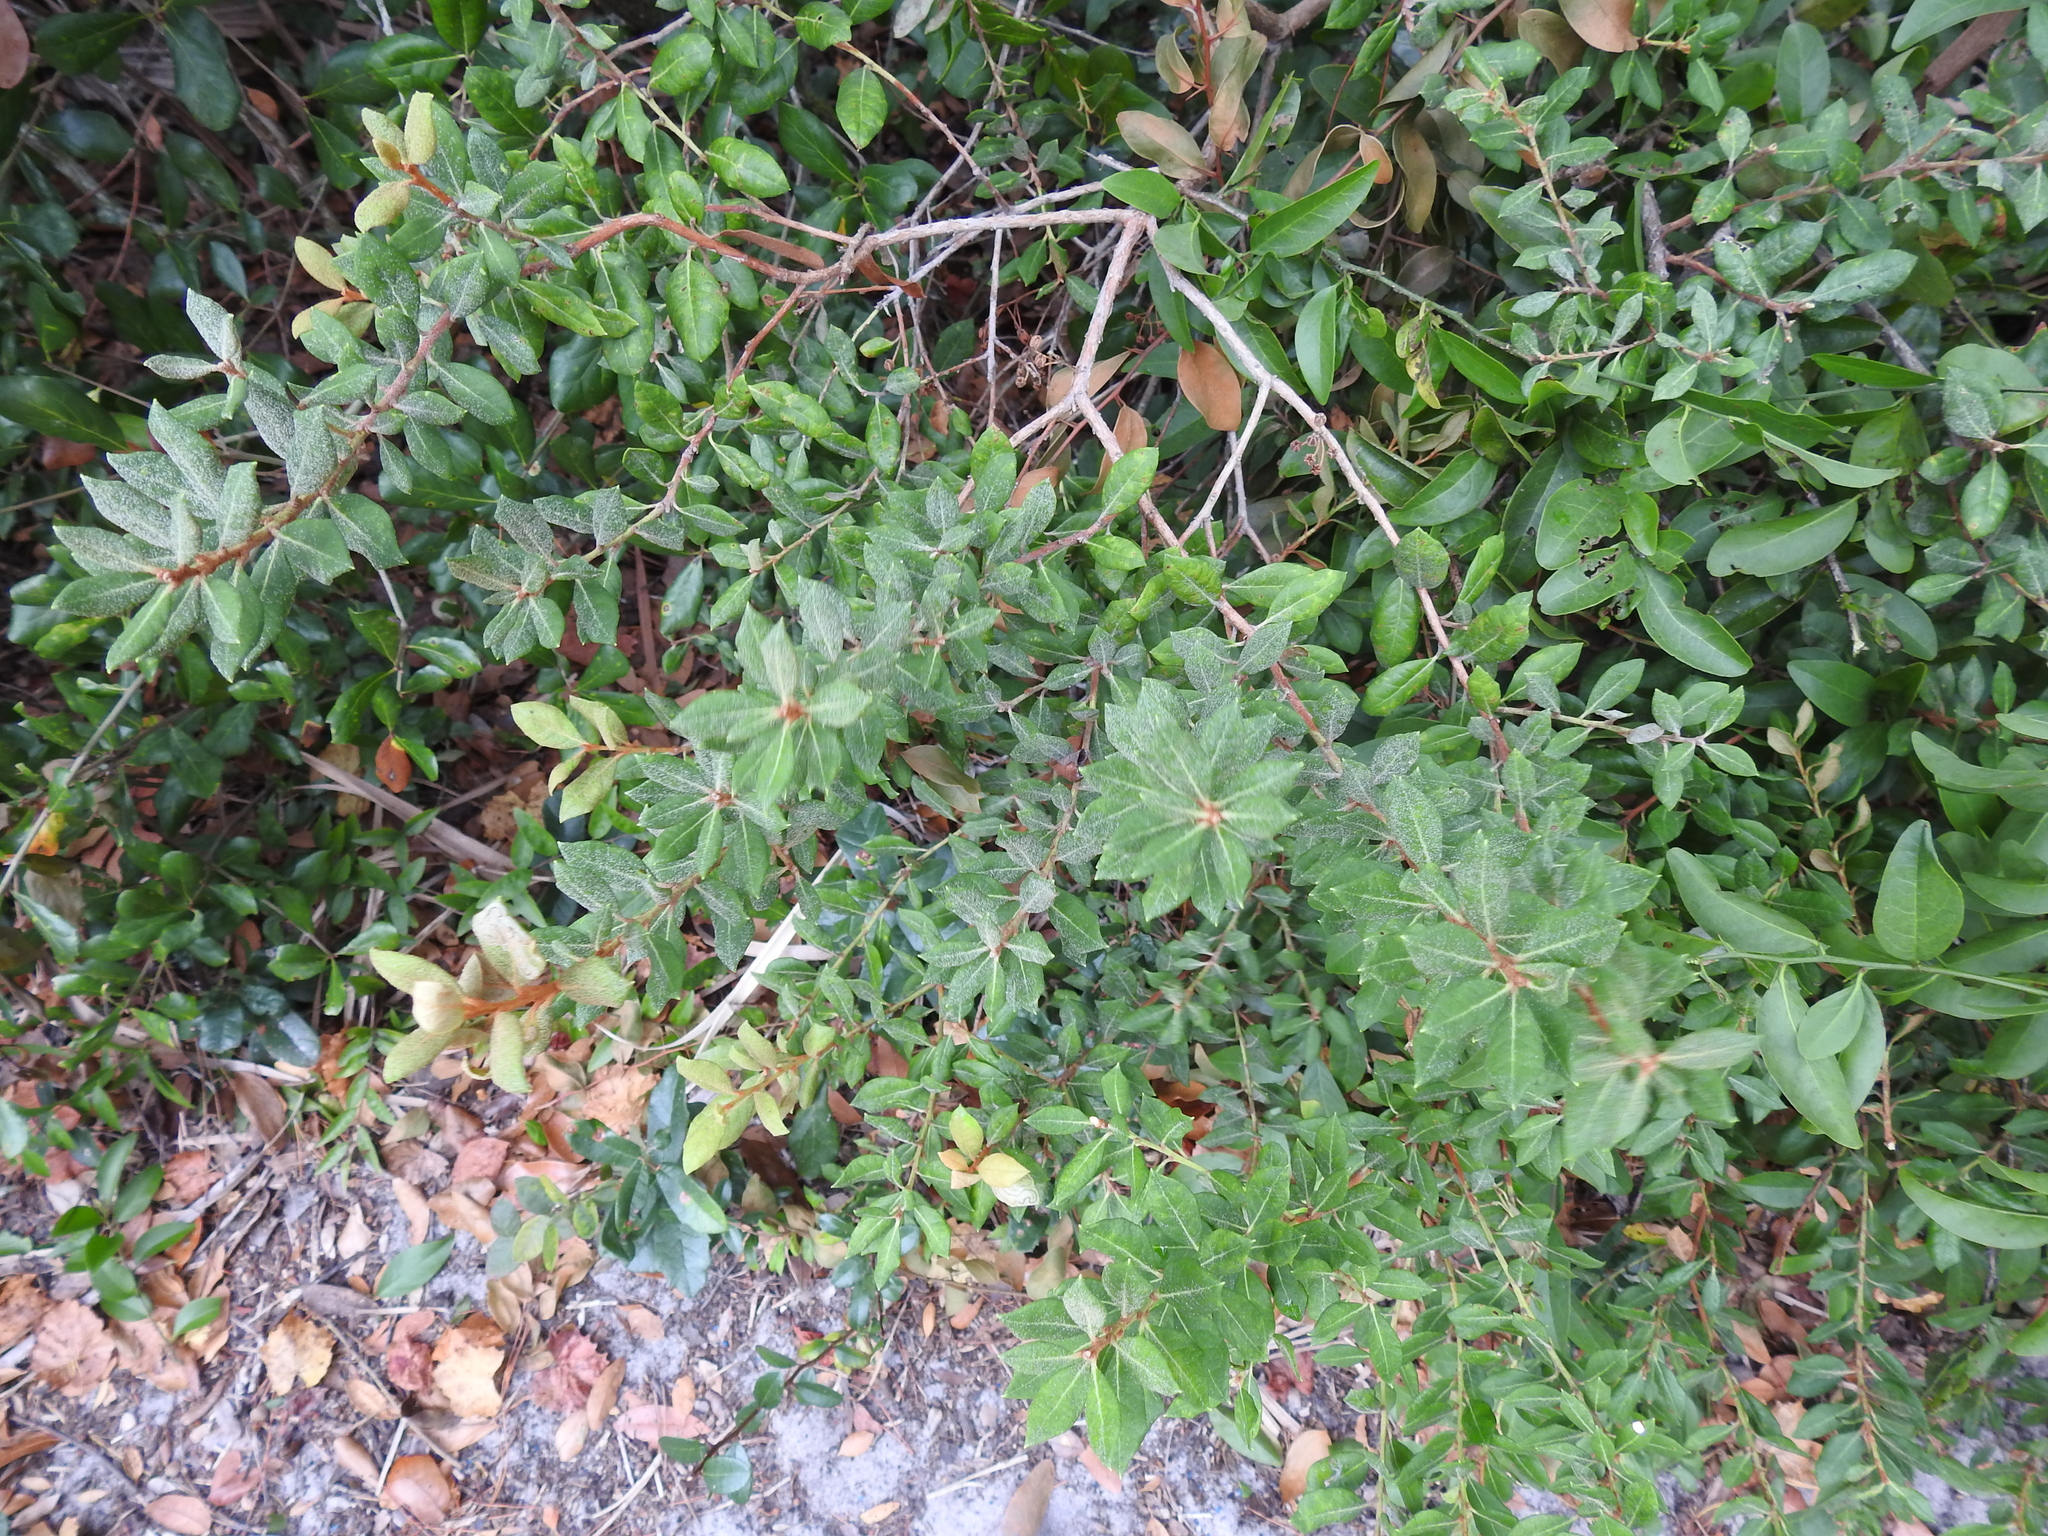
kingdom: Plantae
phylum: Tracheophyta
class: Magnoliopsida
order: Ericales
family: Ericaceae
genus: Lyonia
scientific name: Lyonia ferruginea
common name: Rusty lyonia
